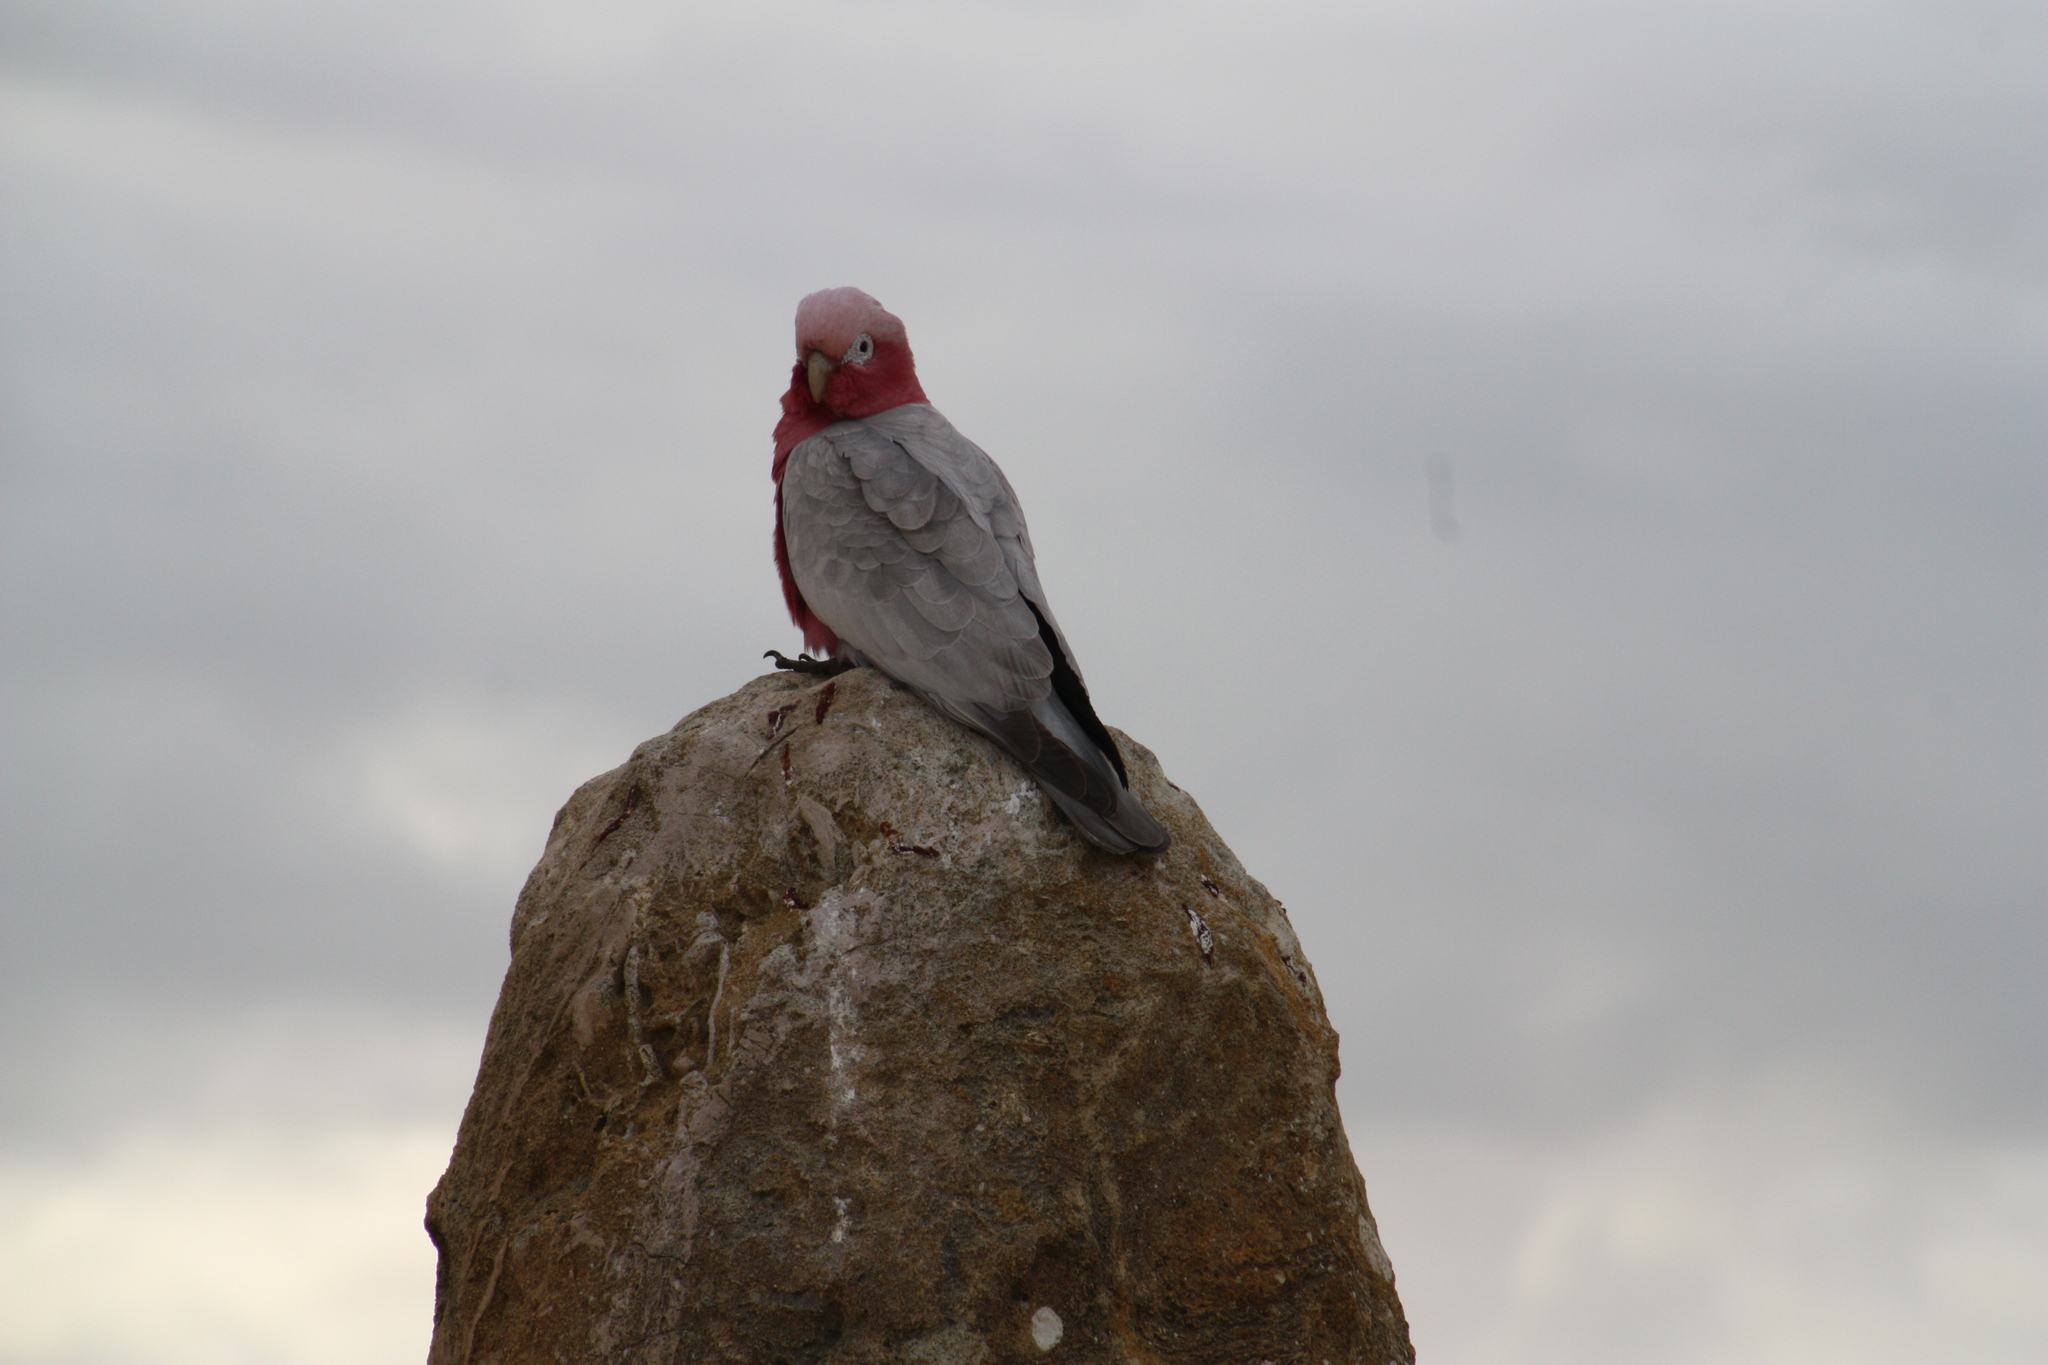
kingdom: Animalia
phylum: Chordata
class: Aves
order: Psittaciformes
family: Psittacidae
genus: Eolophus
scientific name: Eolophus roseicapilla
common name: Galah
